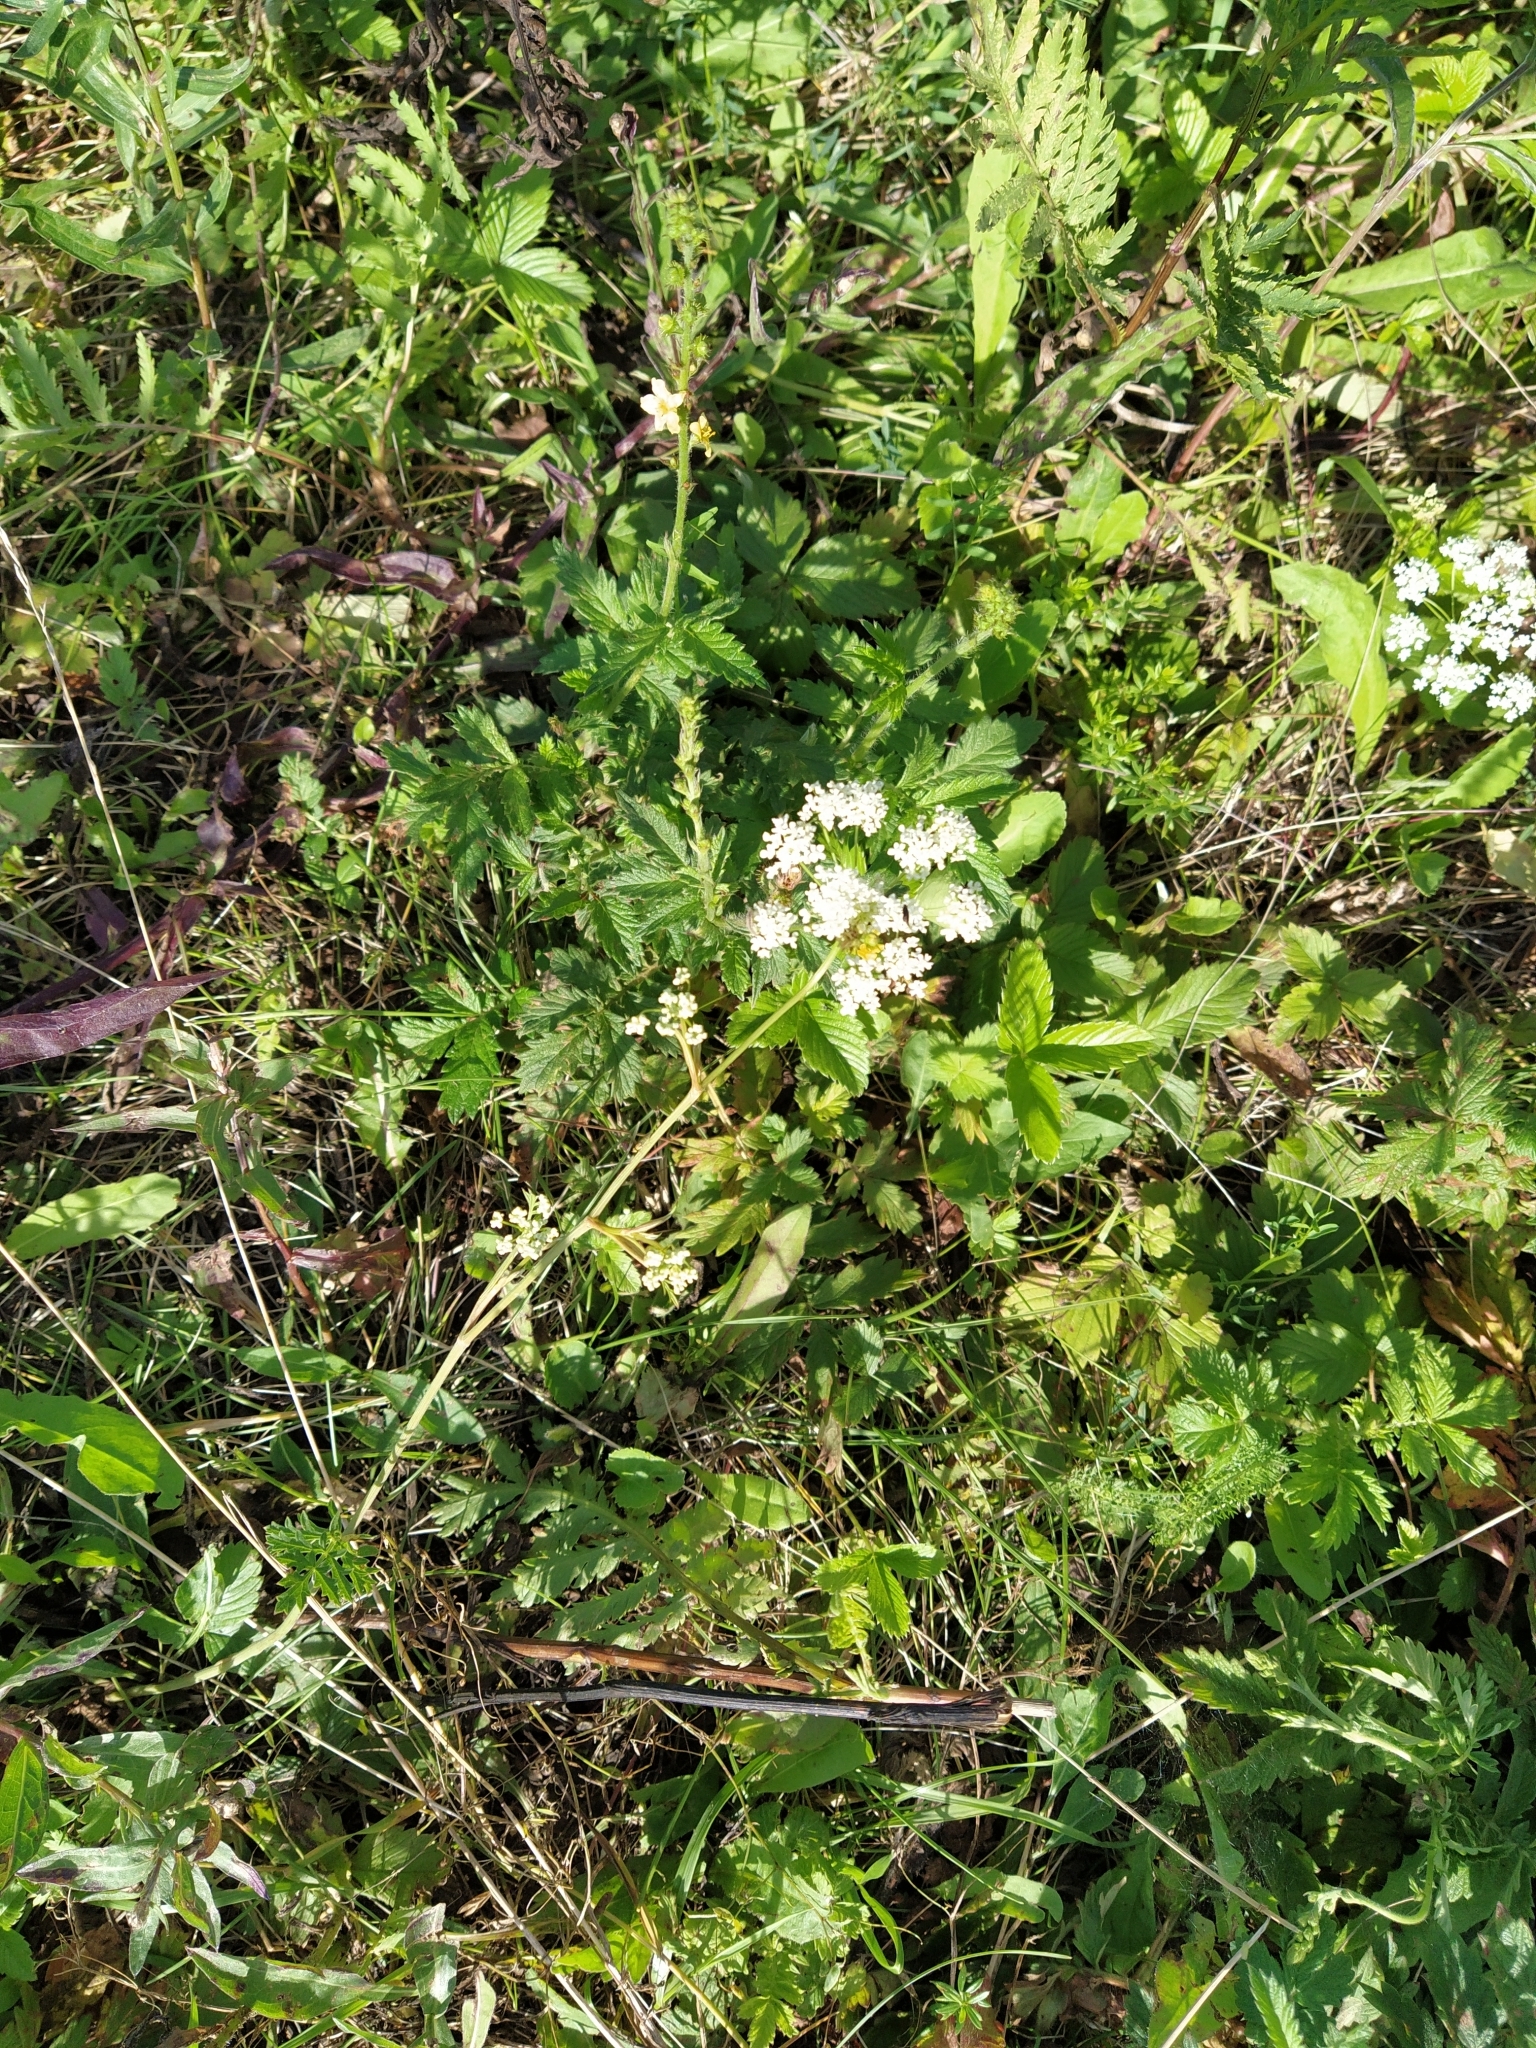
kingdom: Plantae
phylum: Tracheophyta
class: Magnoliopsida
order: Apiales
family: Apiaceae
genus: Pimpinella
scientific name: Pimpinella saxifraga
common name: Burnet-saxifrage
